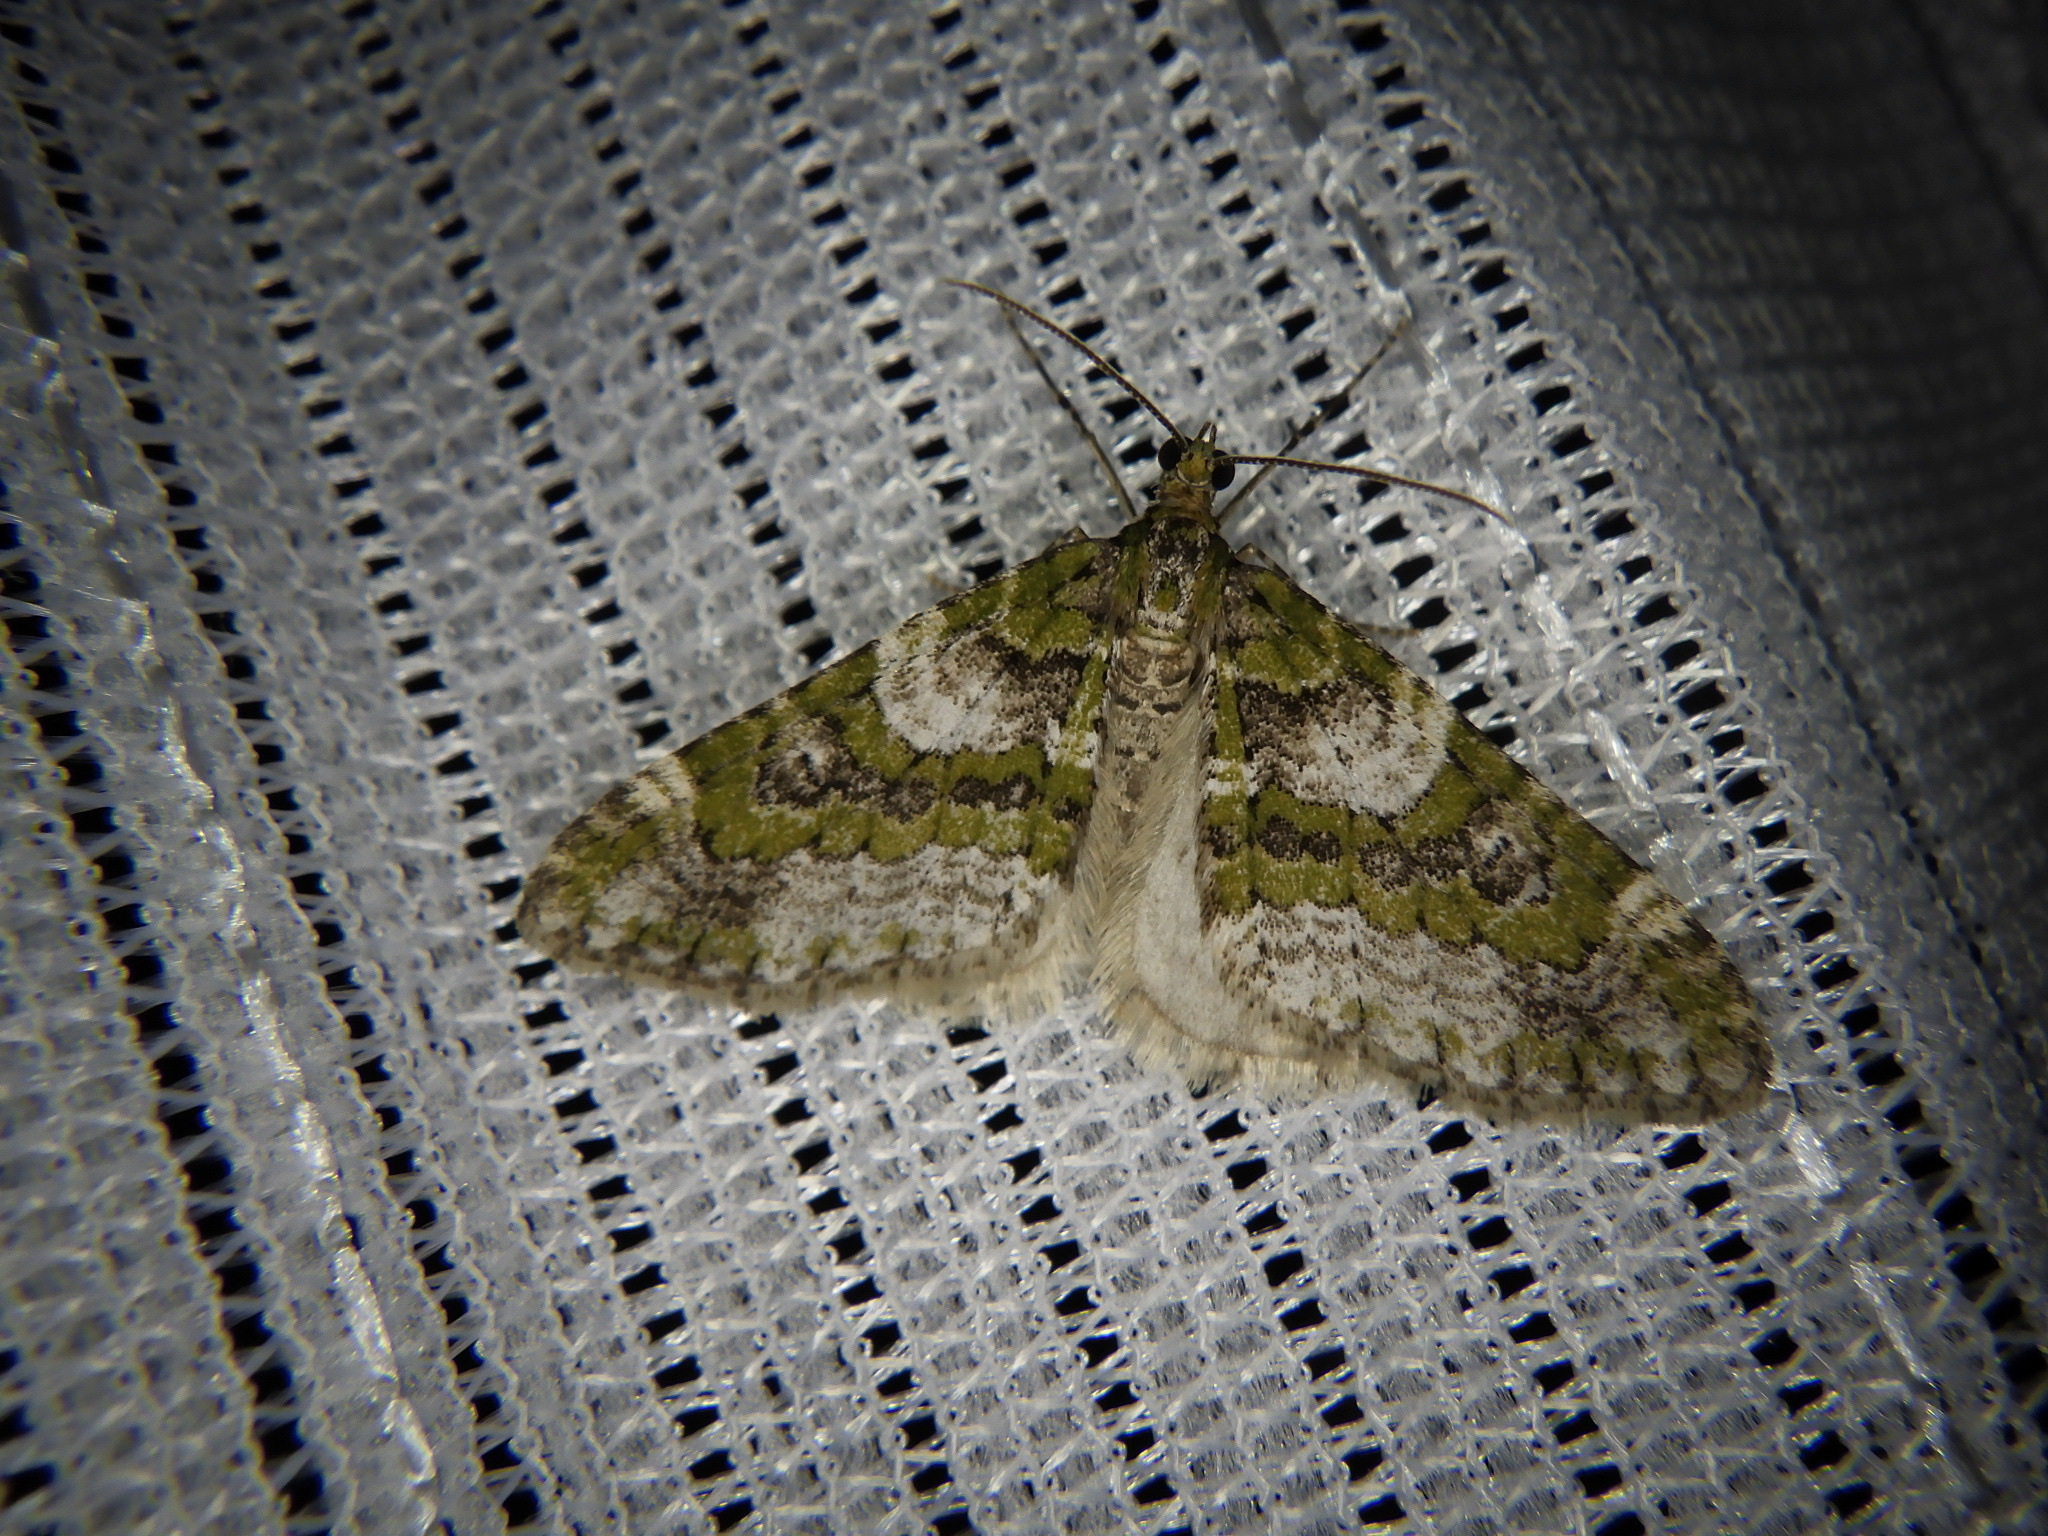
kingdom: Animalia
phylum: Arthropoda
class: Insecta
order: Lepidoptera
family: Geometridae
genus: Esakiopteryx
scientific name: Esakiopteryx volitans
